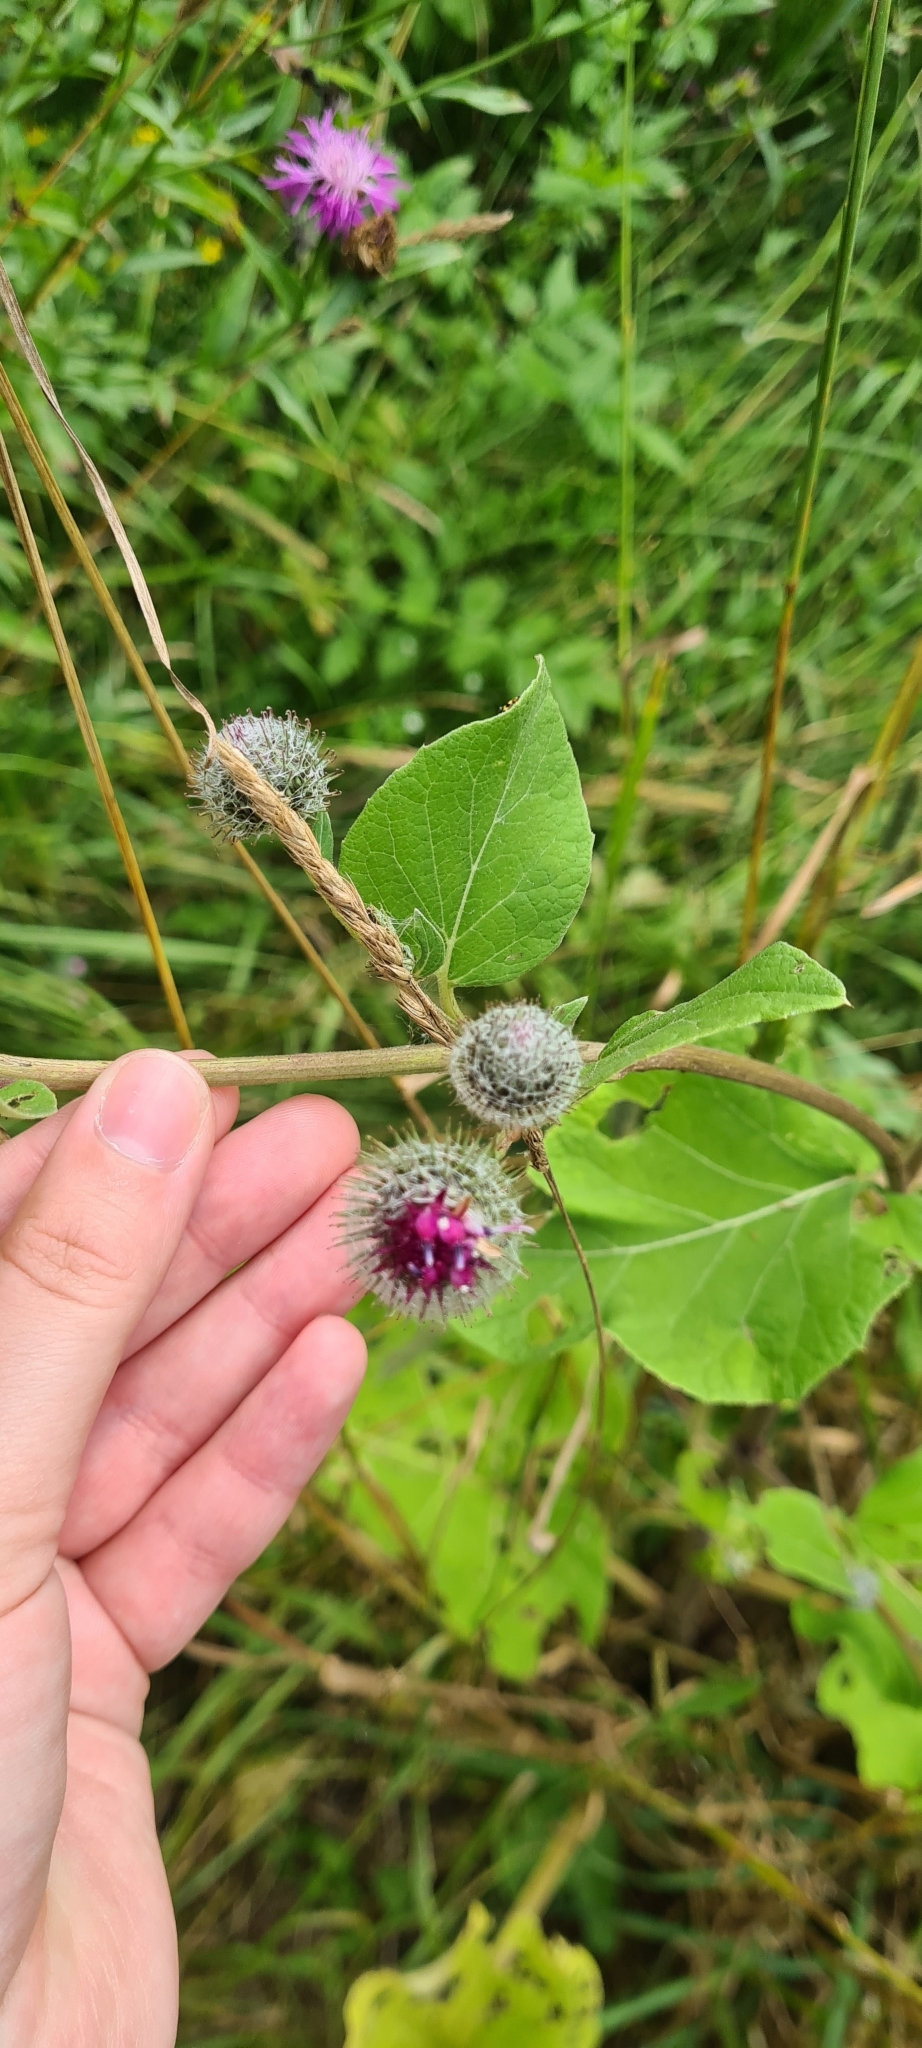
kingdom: Plantae
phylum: Tracheophyta
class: Magnoliopsida
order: Asterales
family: Asteraceae
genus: Arctium
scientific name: Arctium tomentosum
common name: Woolly burdock
